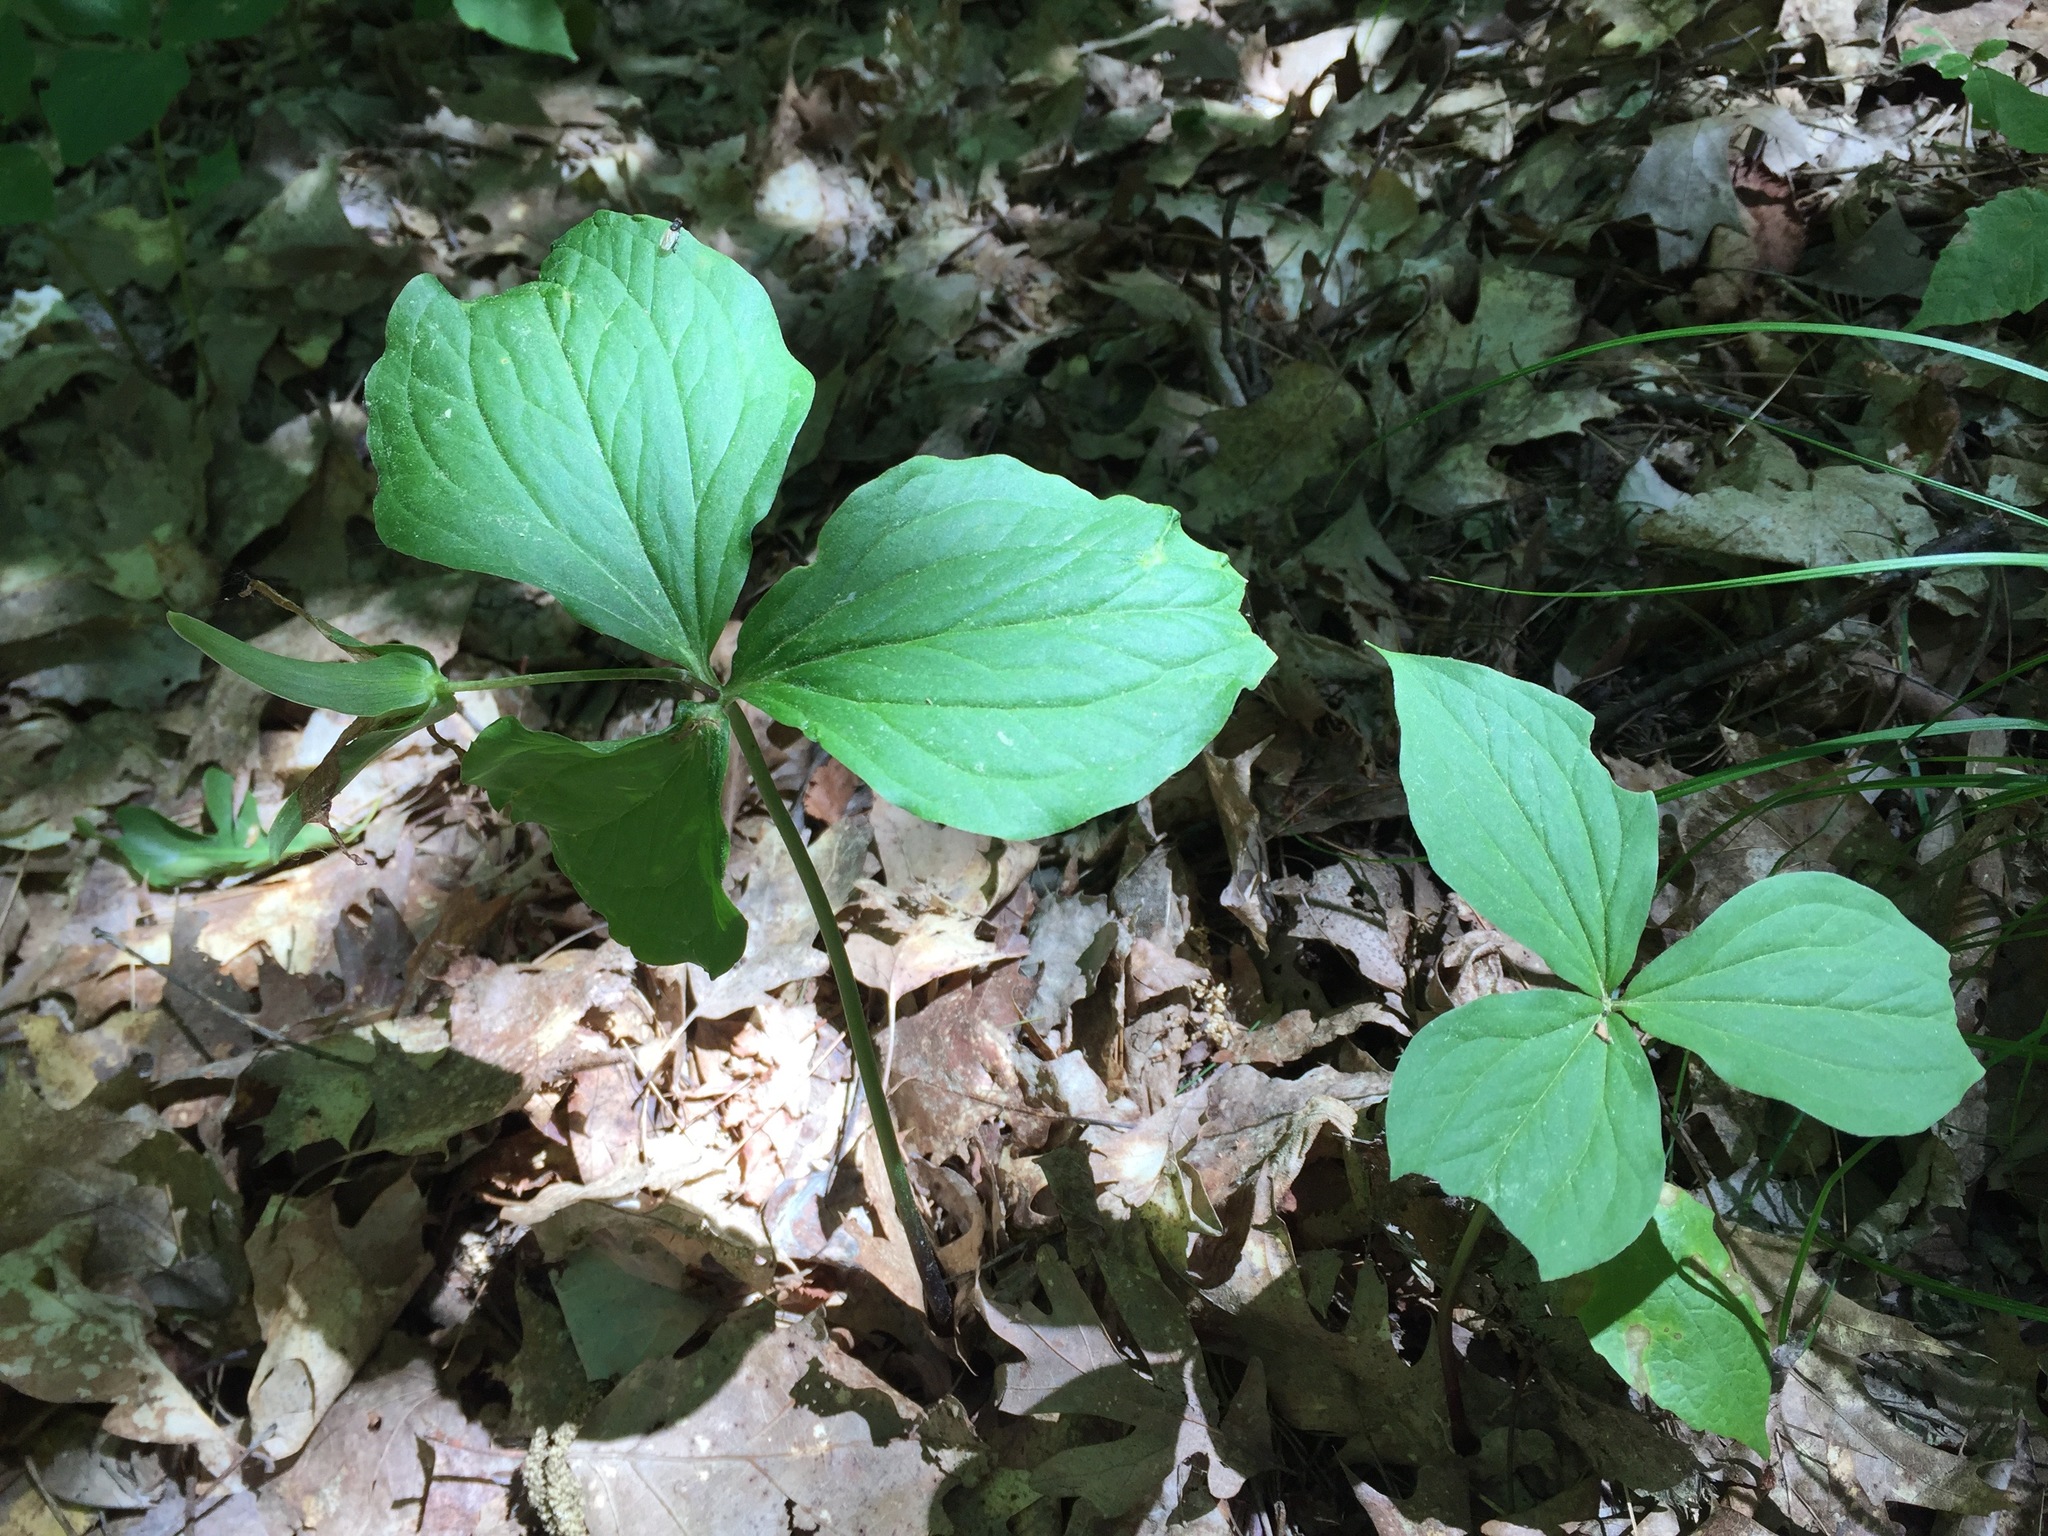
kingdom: Plantae
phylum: Tracheophyta
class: Liliopsida
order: Liliales
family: Melanthiaceae
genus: Trillium
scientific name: Trillium grandiflorum
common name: Great white trillium
